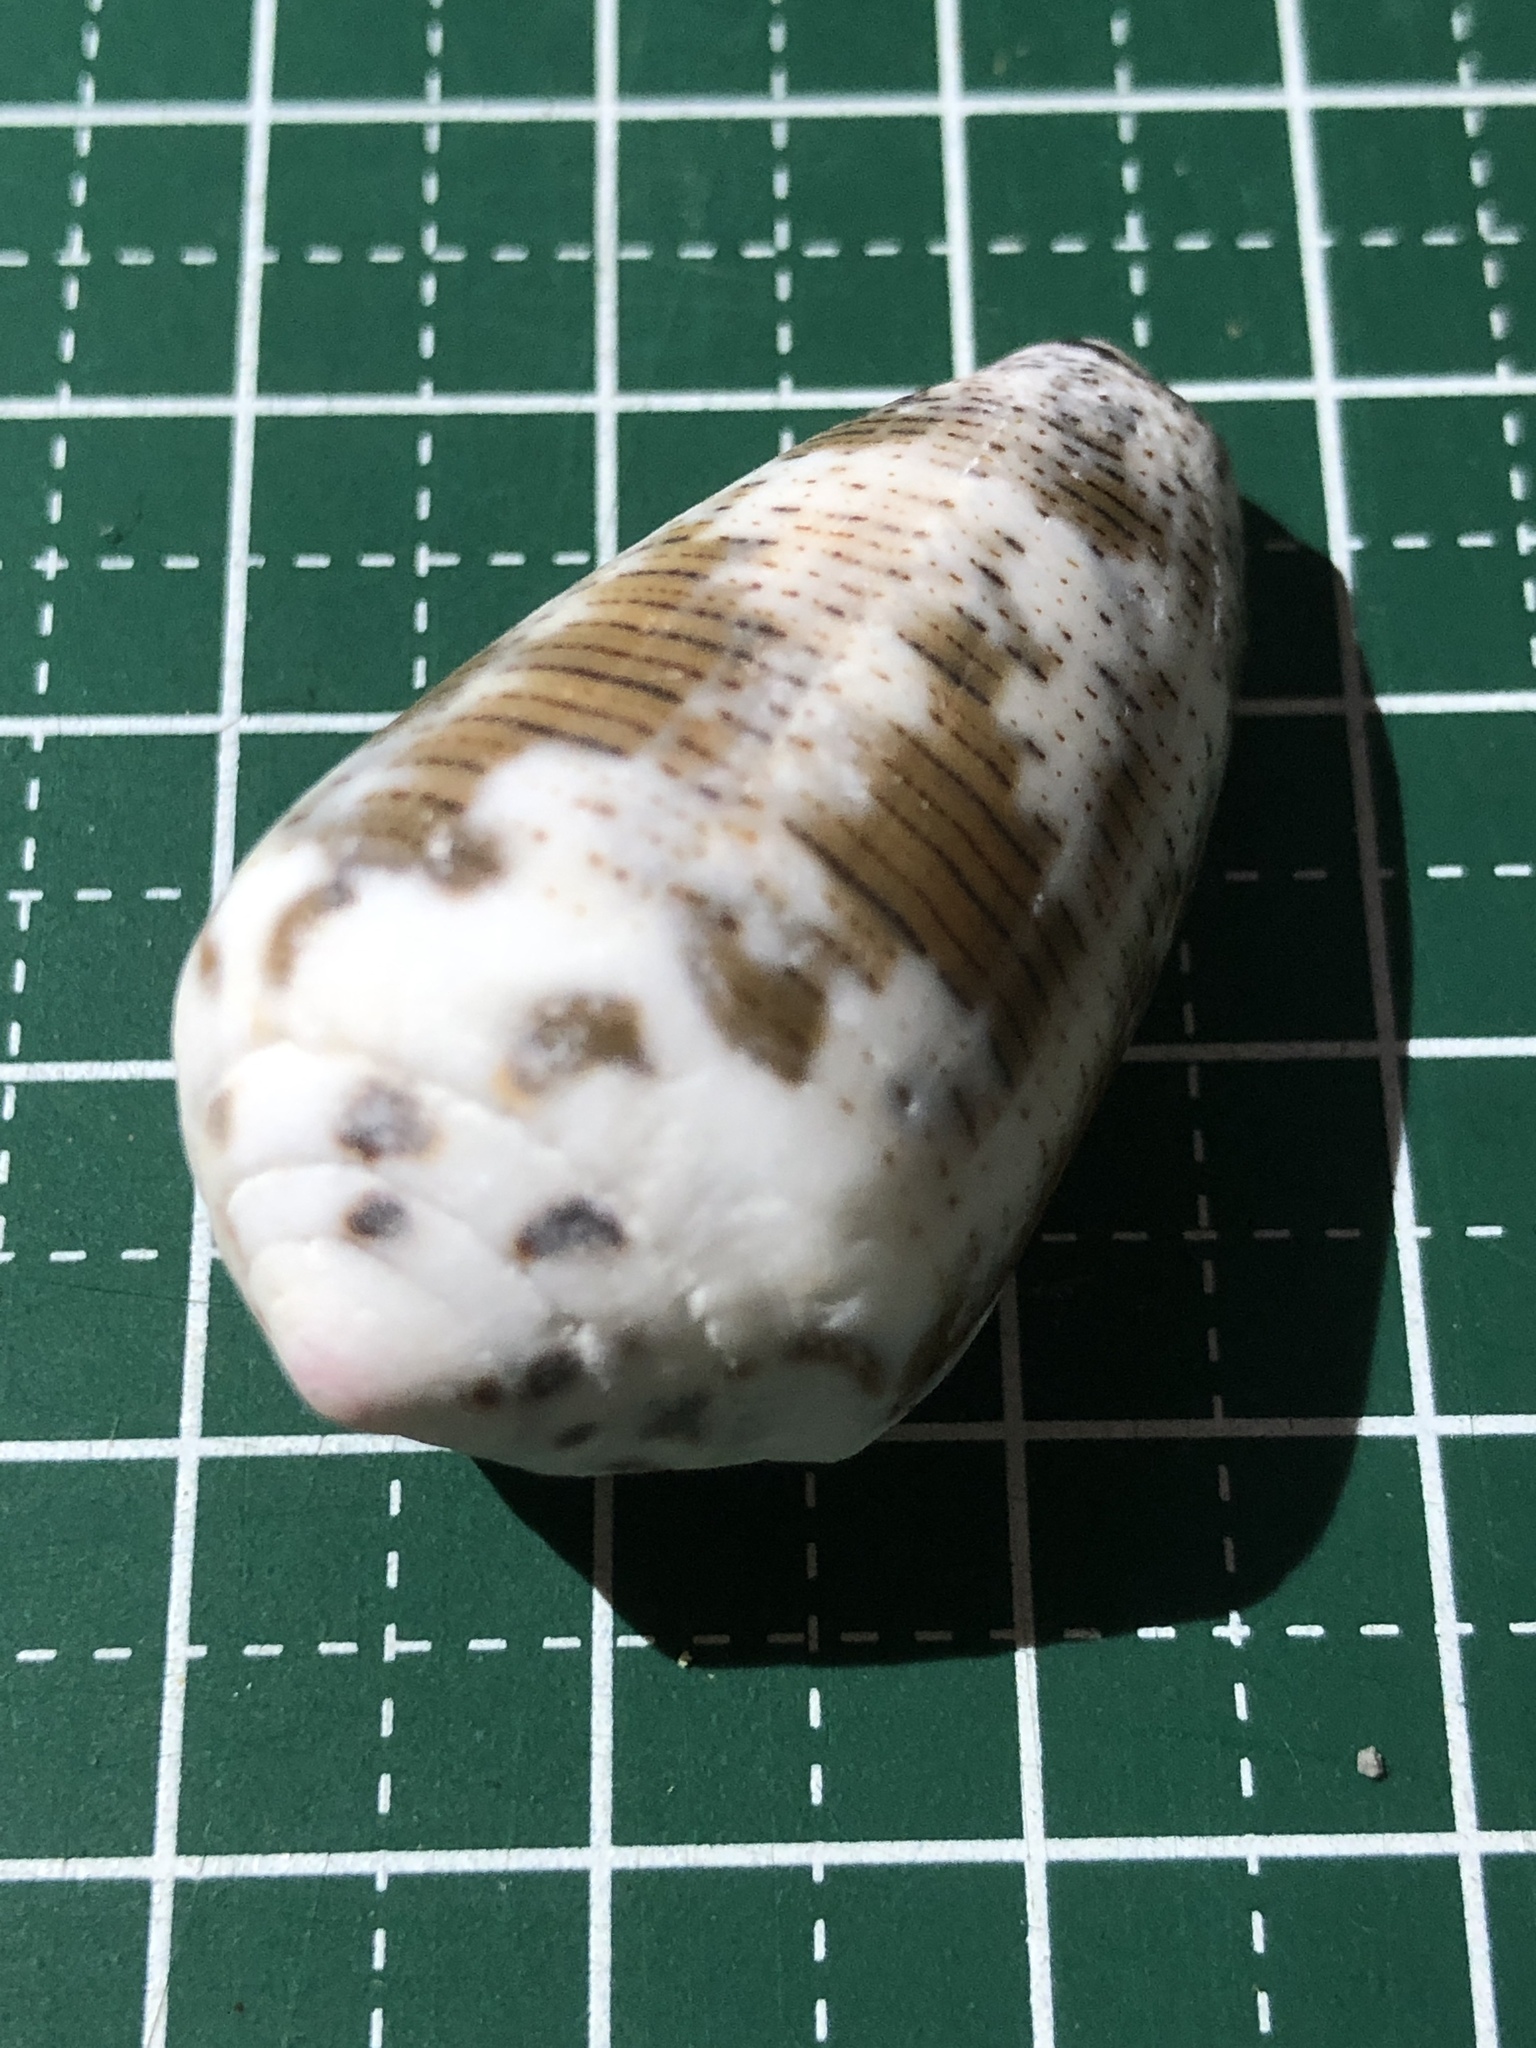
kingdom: Animalia
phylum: Mollusca
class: Gastropoda
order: Neogastropoda
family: Conidae
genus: Conus
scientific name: Conus striolatus
